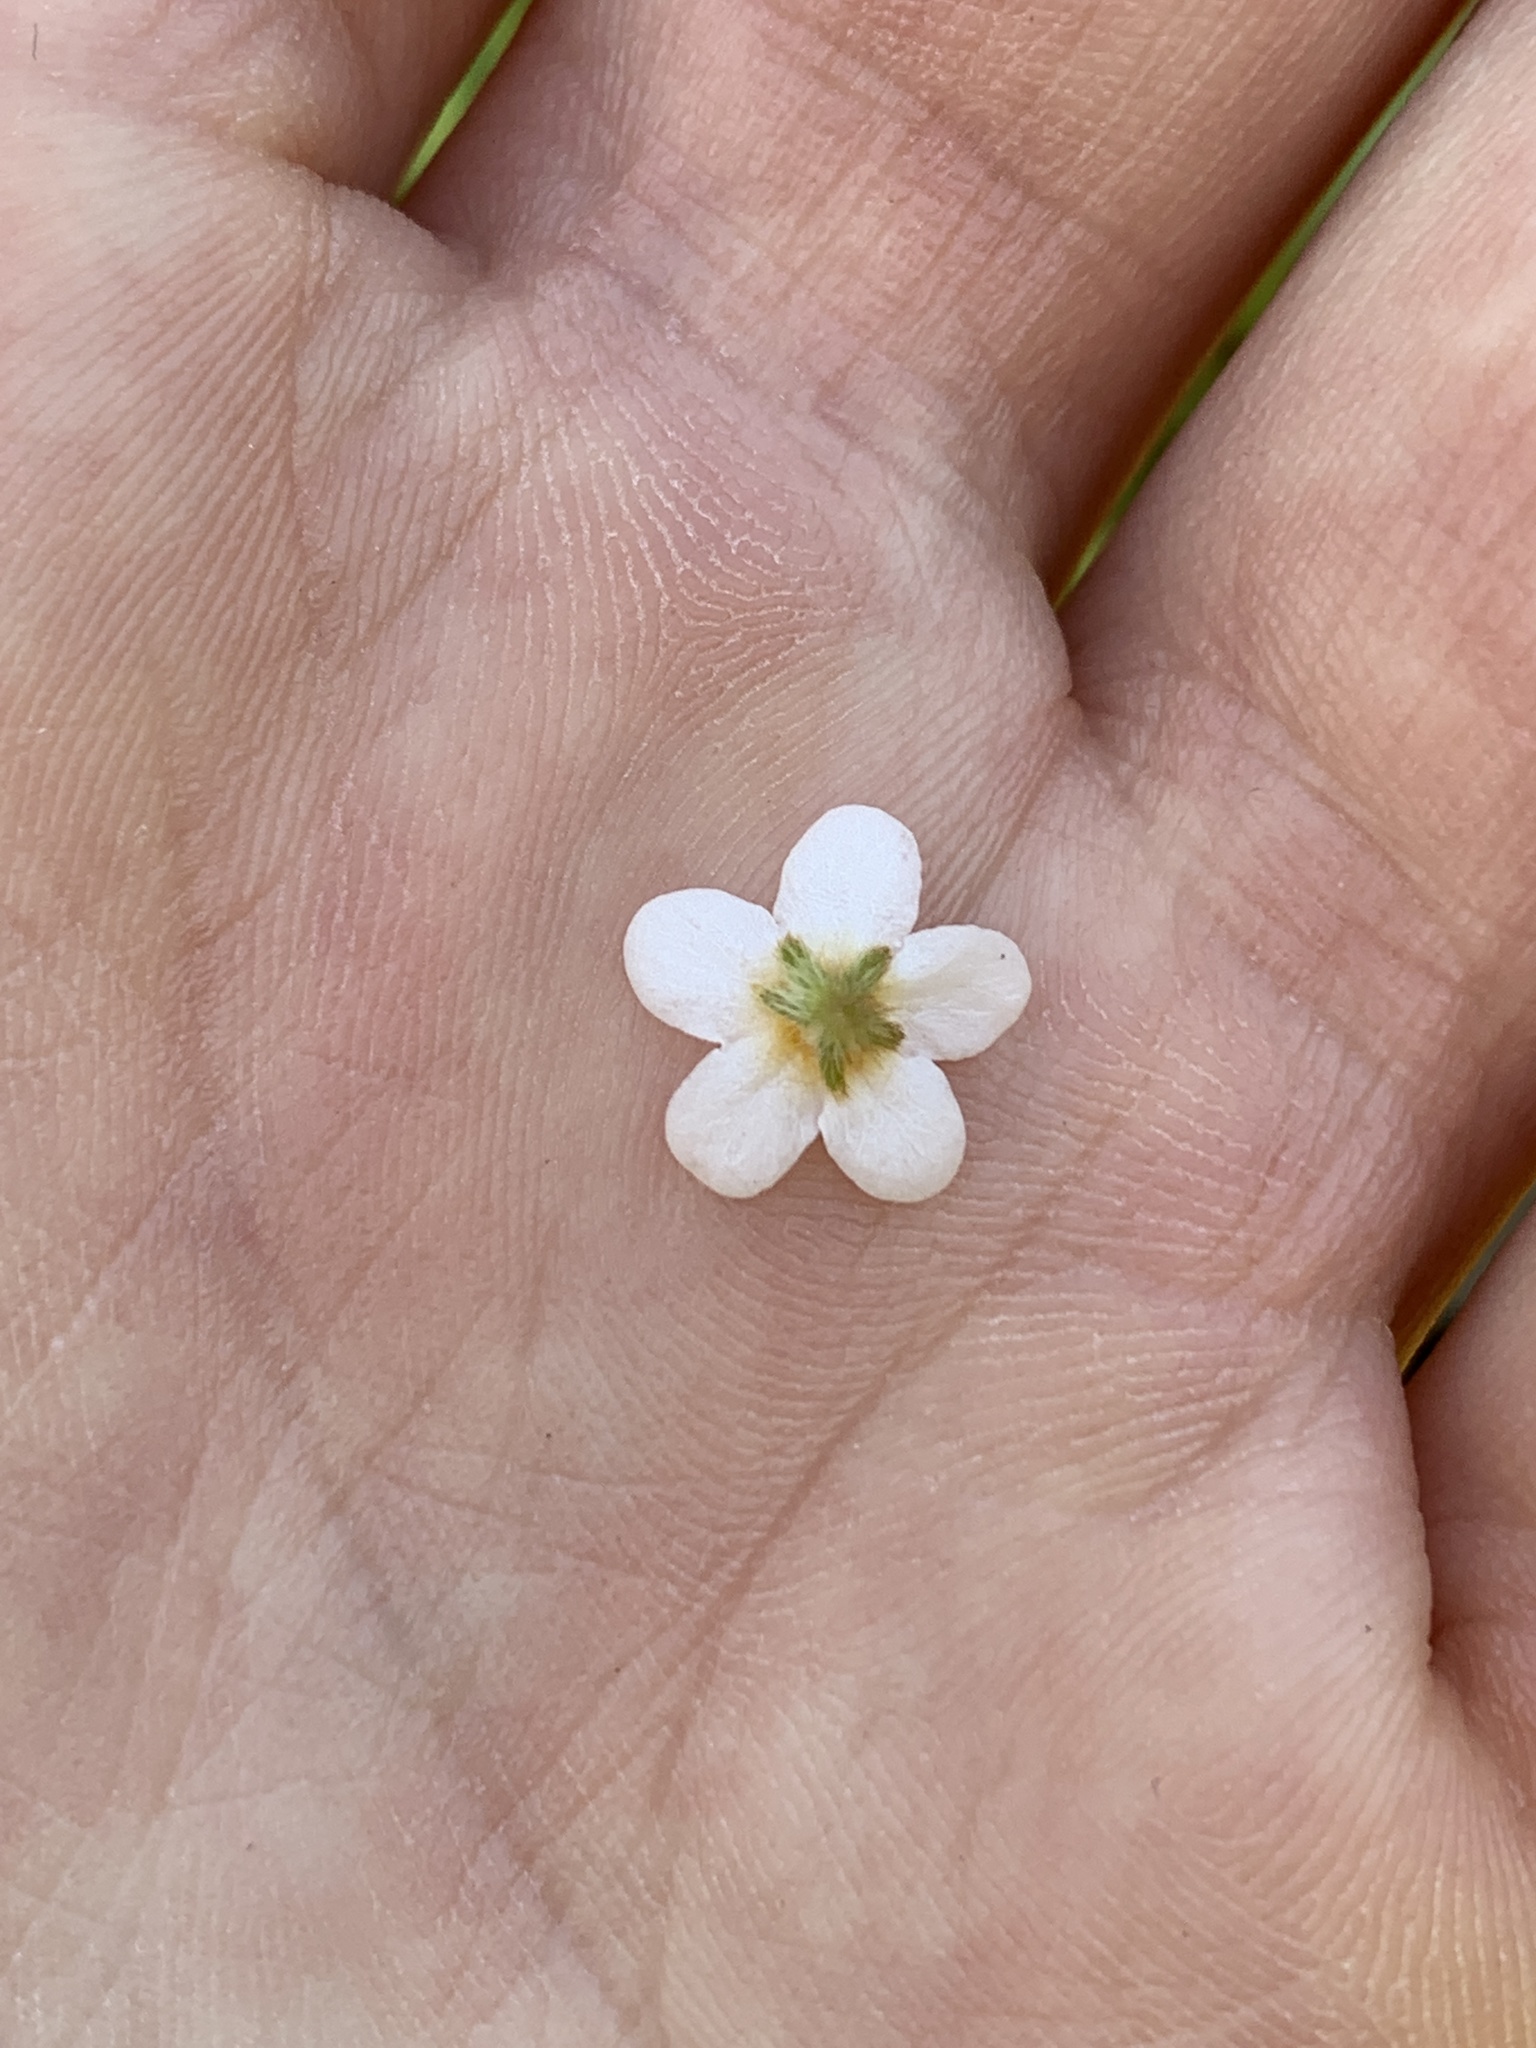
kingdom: Plantae
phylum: Tracheophyta
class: Magnoliopsida
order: Boraginales
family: Boraginaceae
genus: Plagiobothrys
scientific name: Plagiobothrys figuratus
